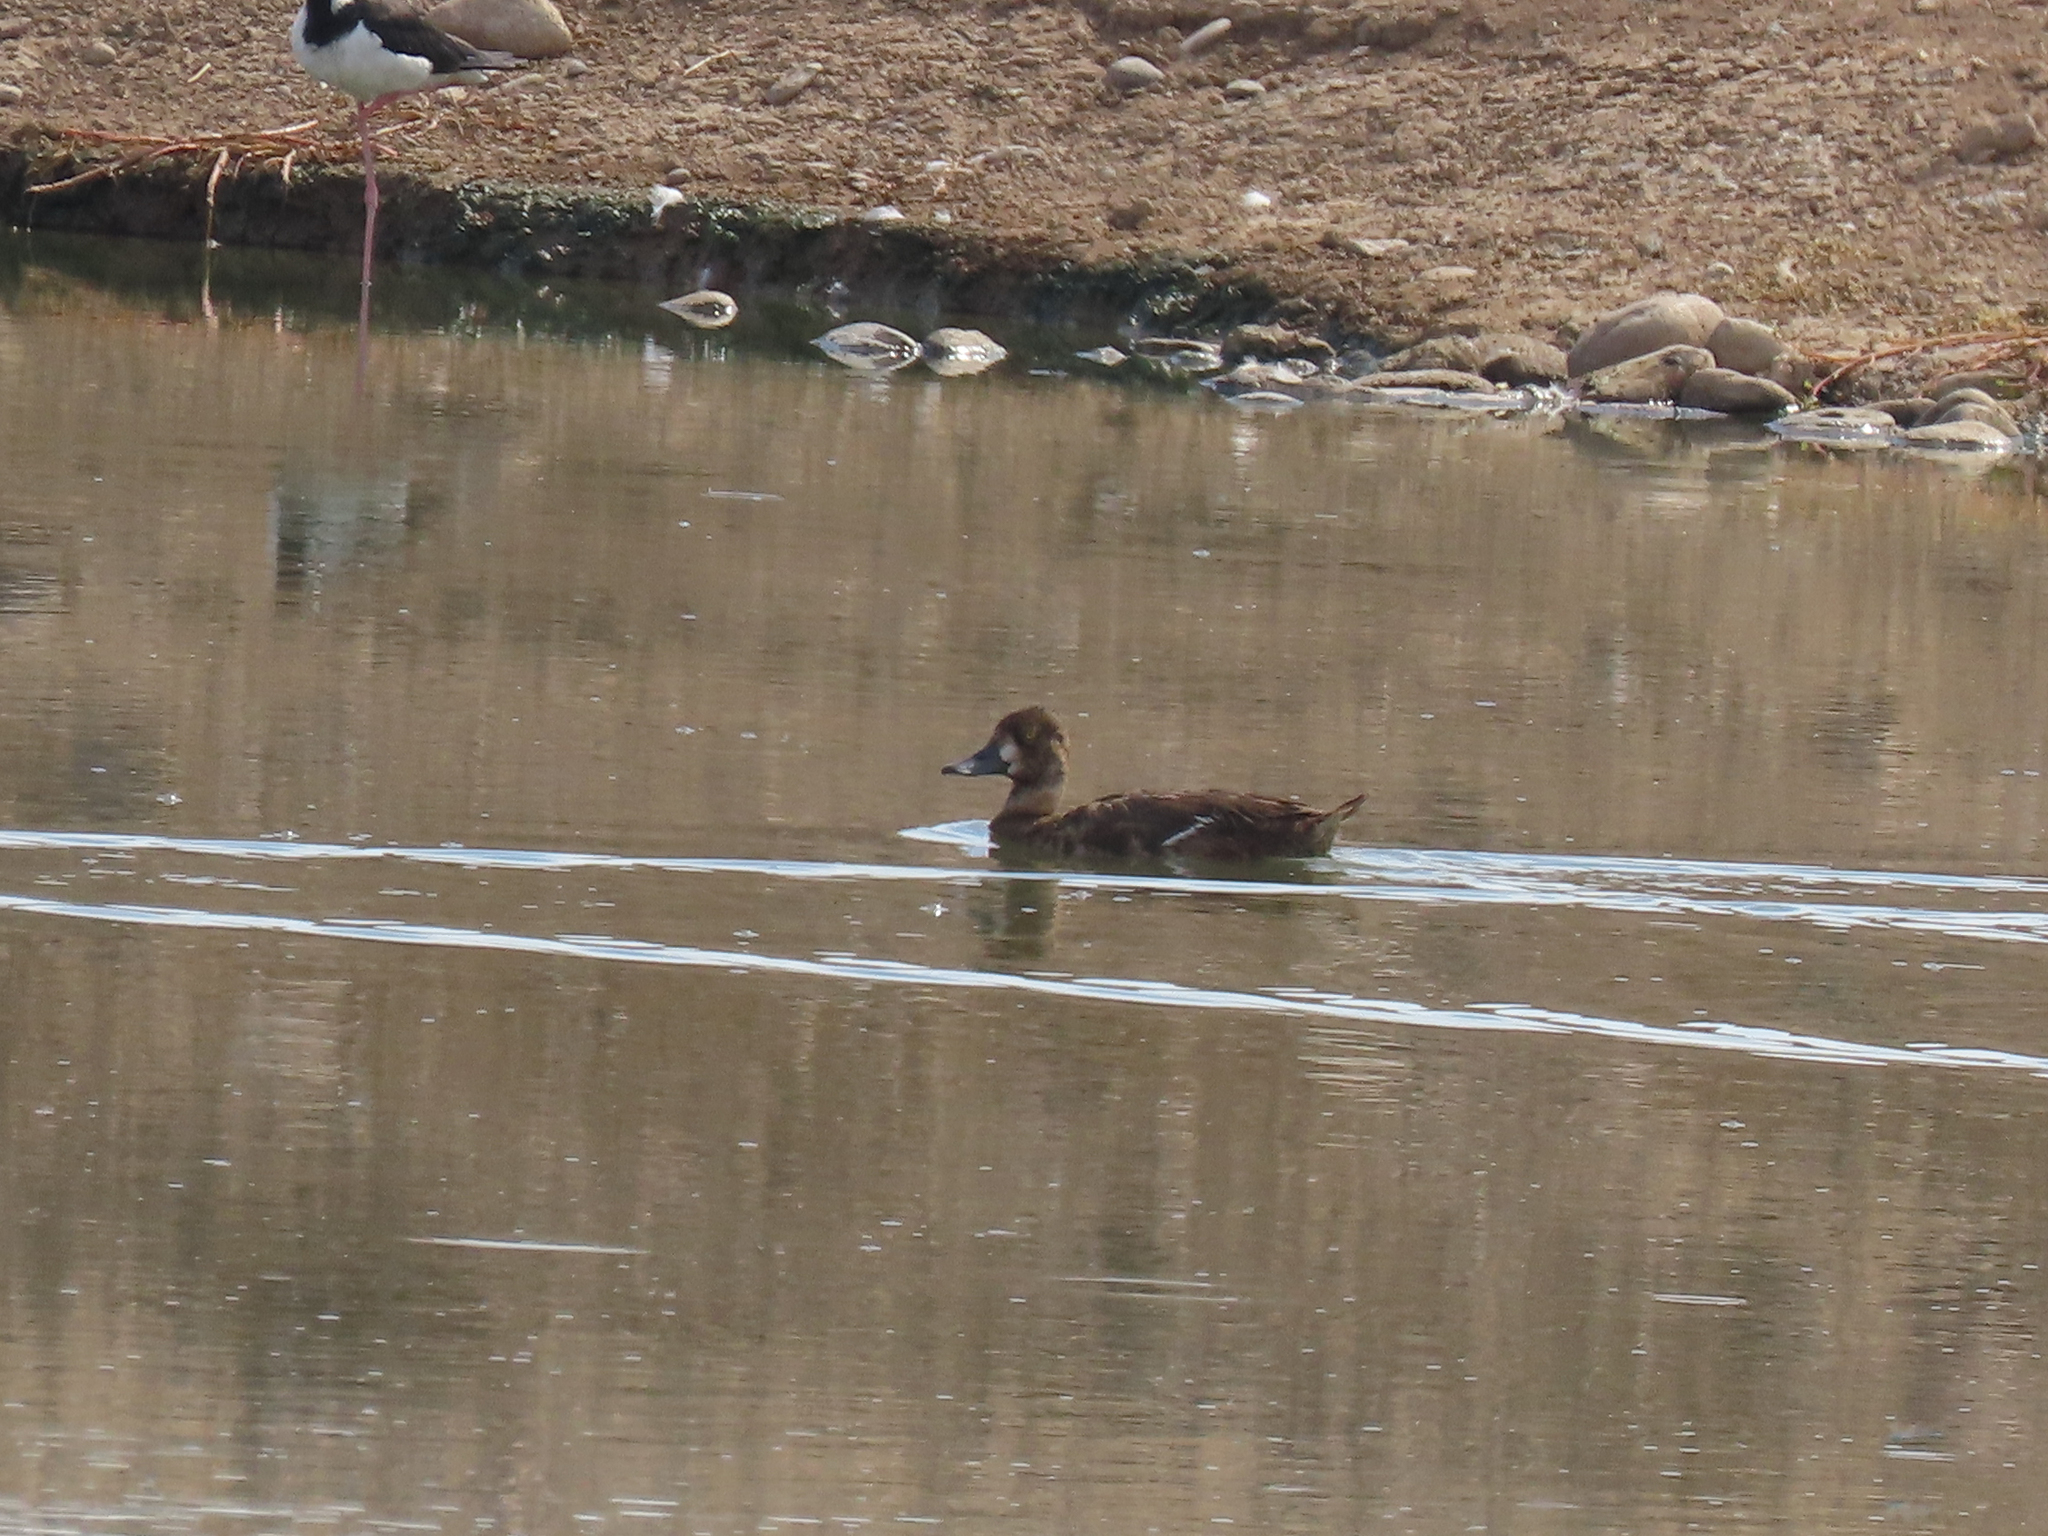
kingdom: Animalia
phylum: Chordata
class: Aves
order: Anseriformes
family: Anatidae
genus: Aythya
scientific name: Aythya affinis
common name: Lesser scaup
